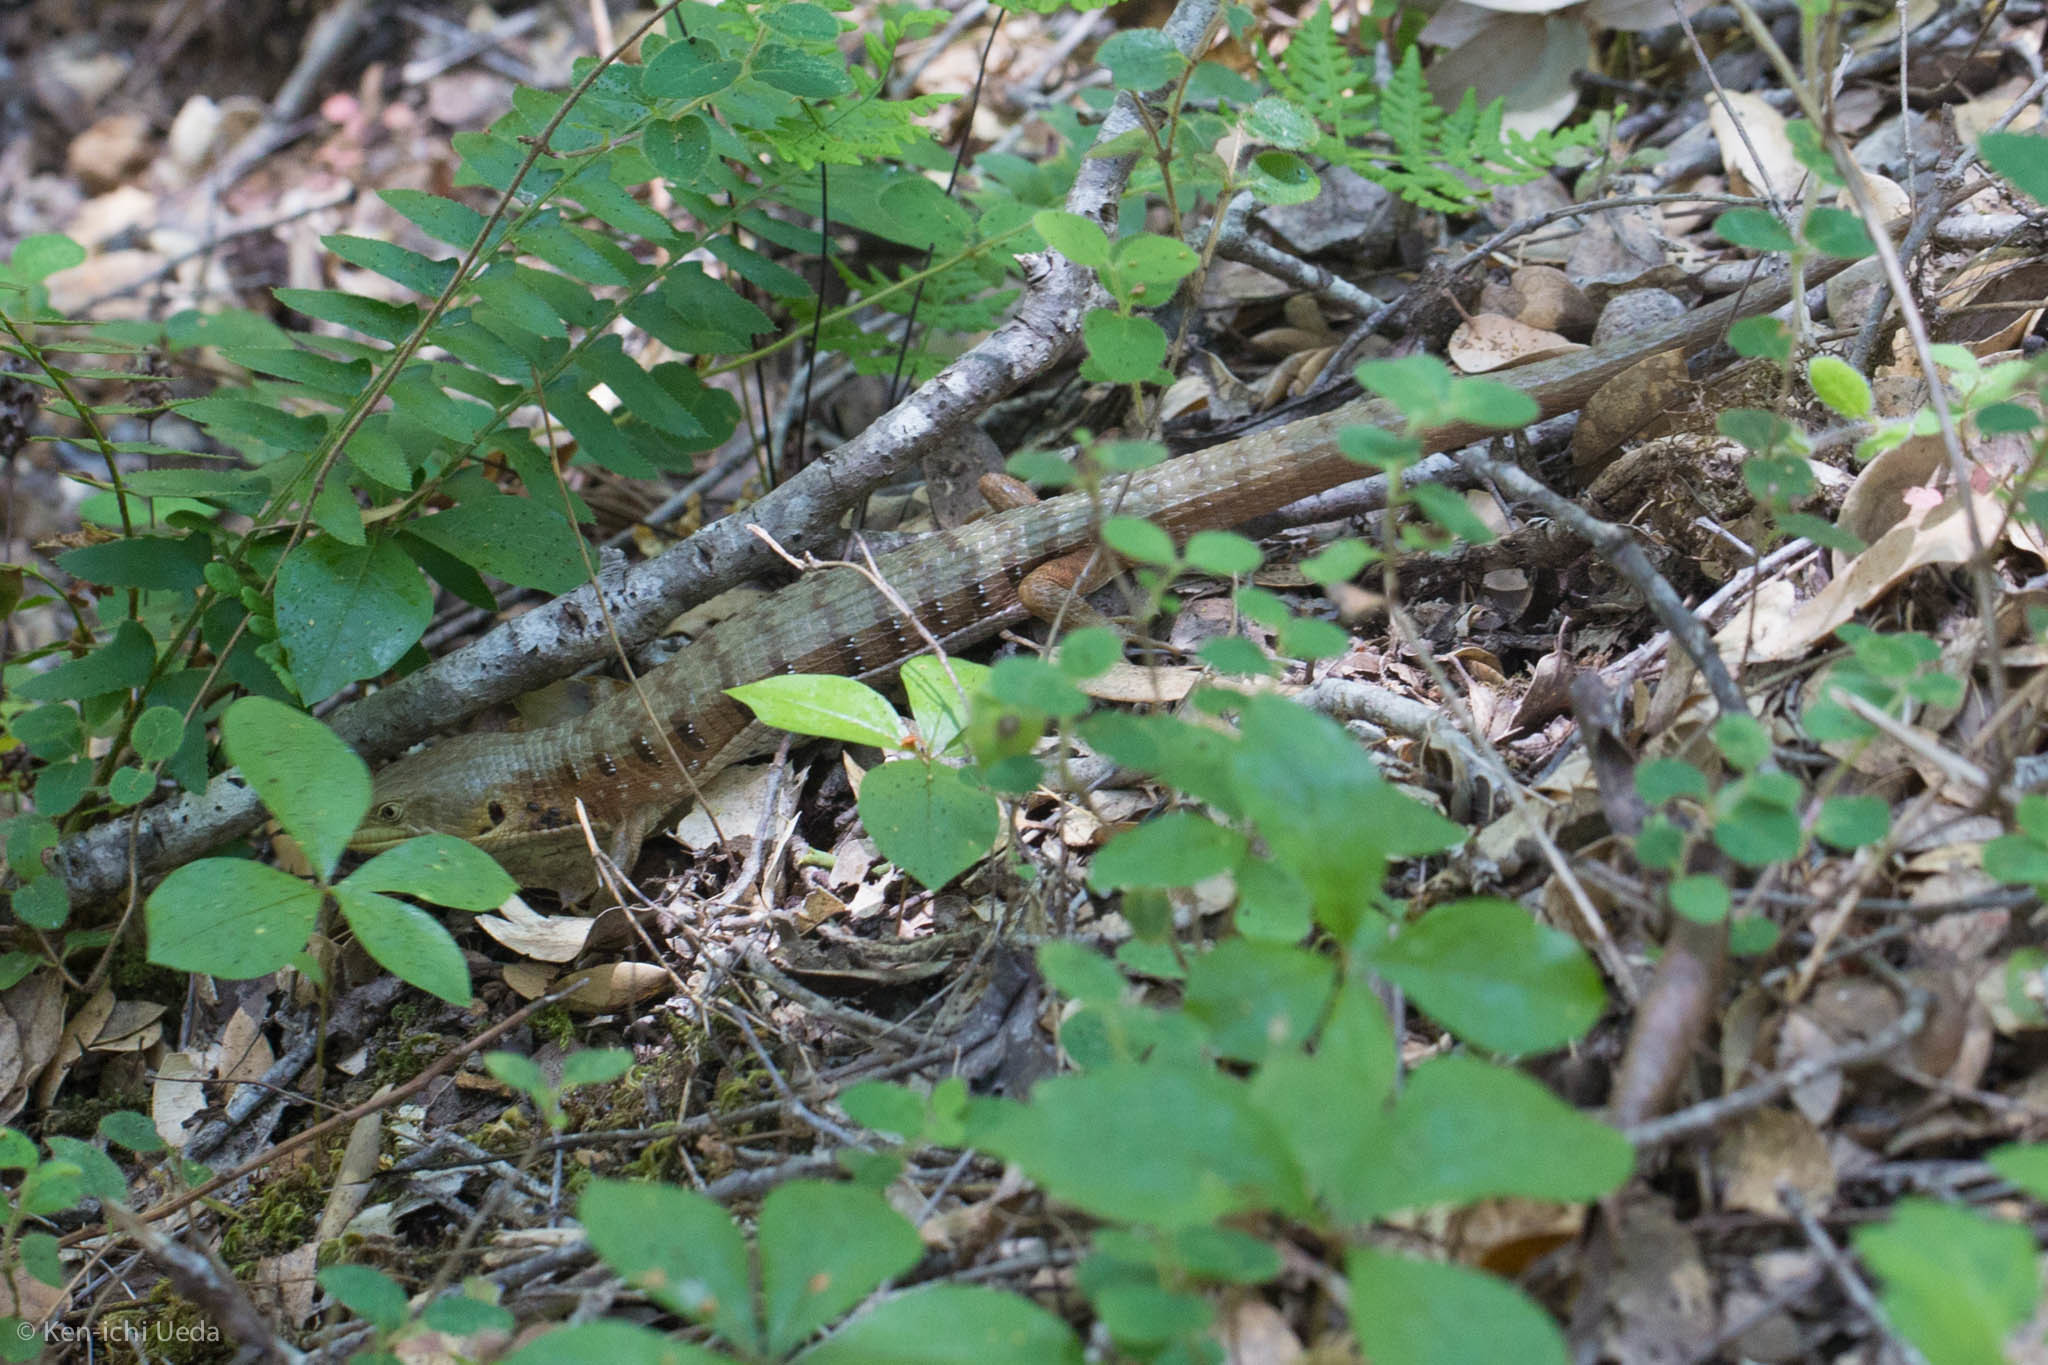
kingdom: Animalia
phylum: Chordata
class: Squamata
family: Anguidae
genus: Elgaria
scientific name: Elgaria multicarinata
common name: Southern alligator lizard
